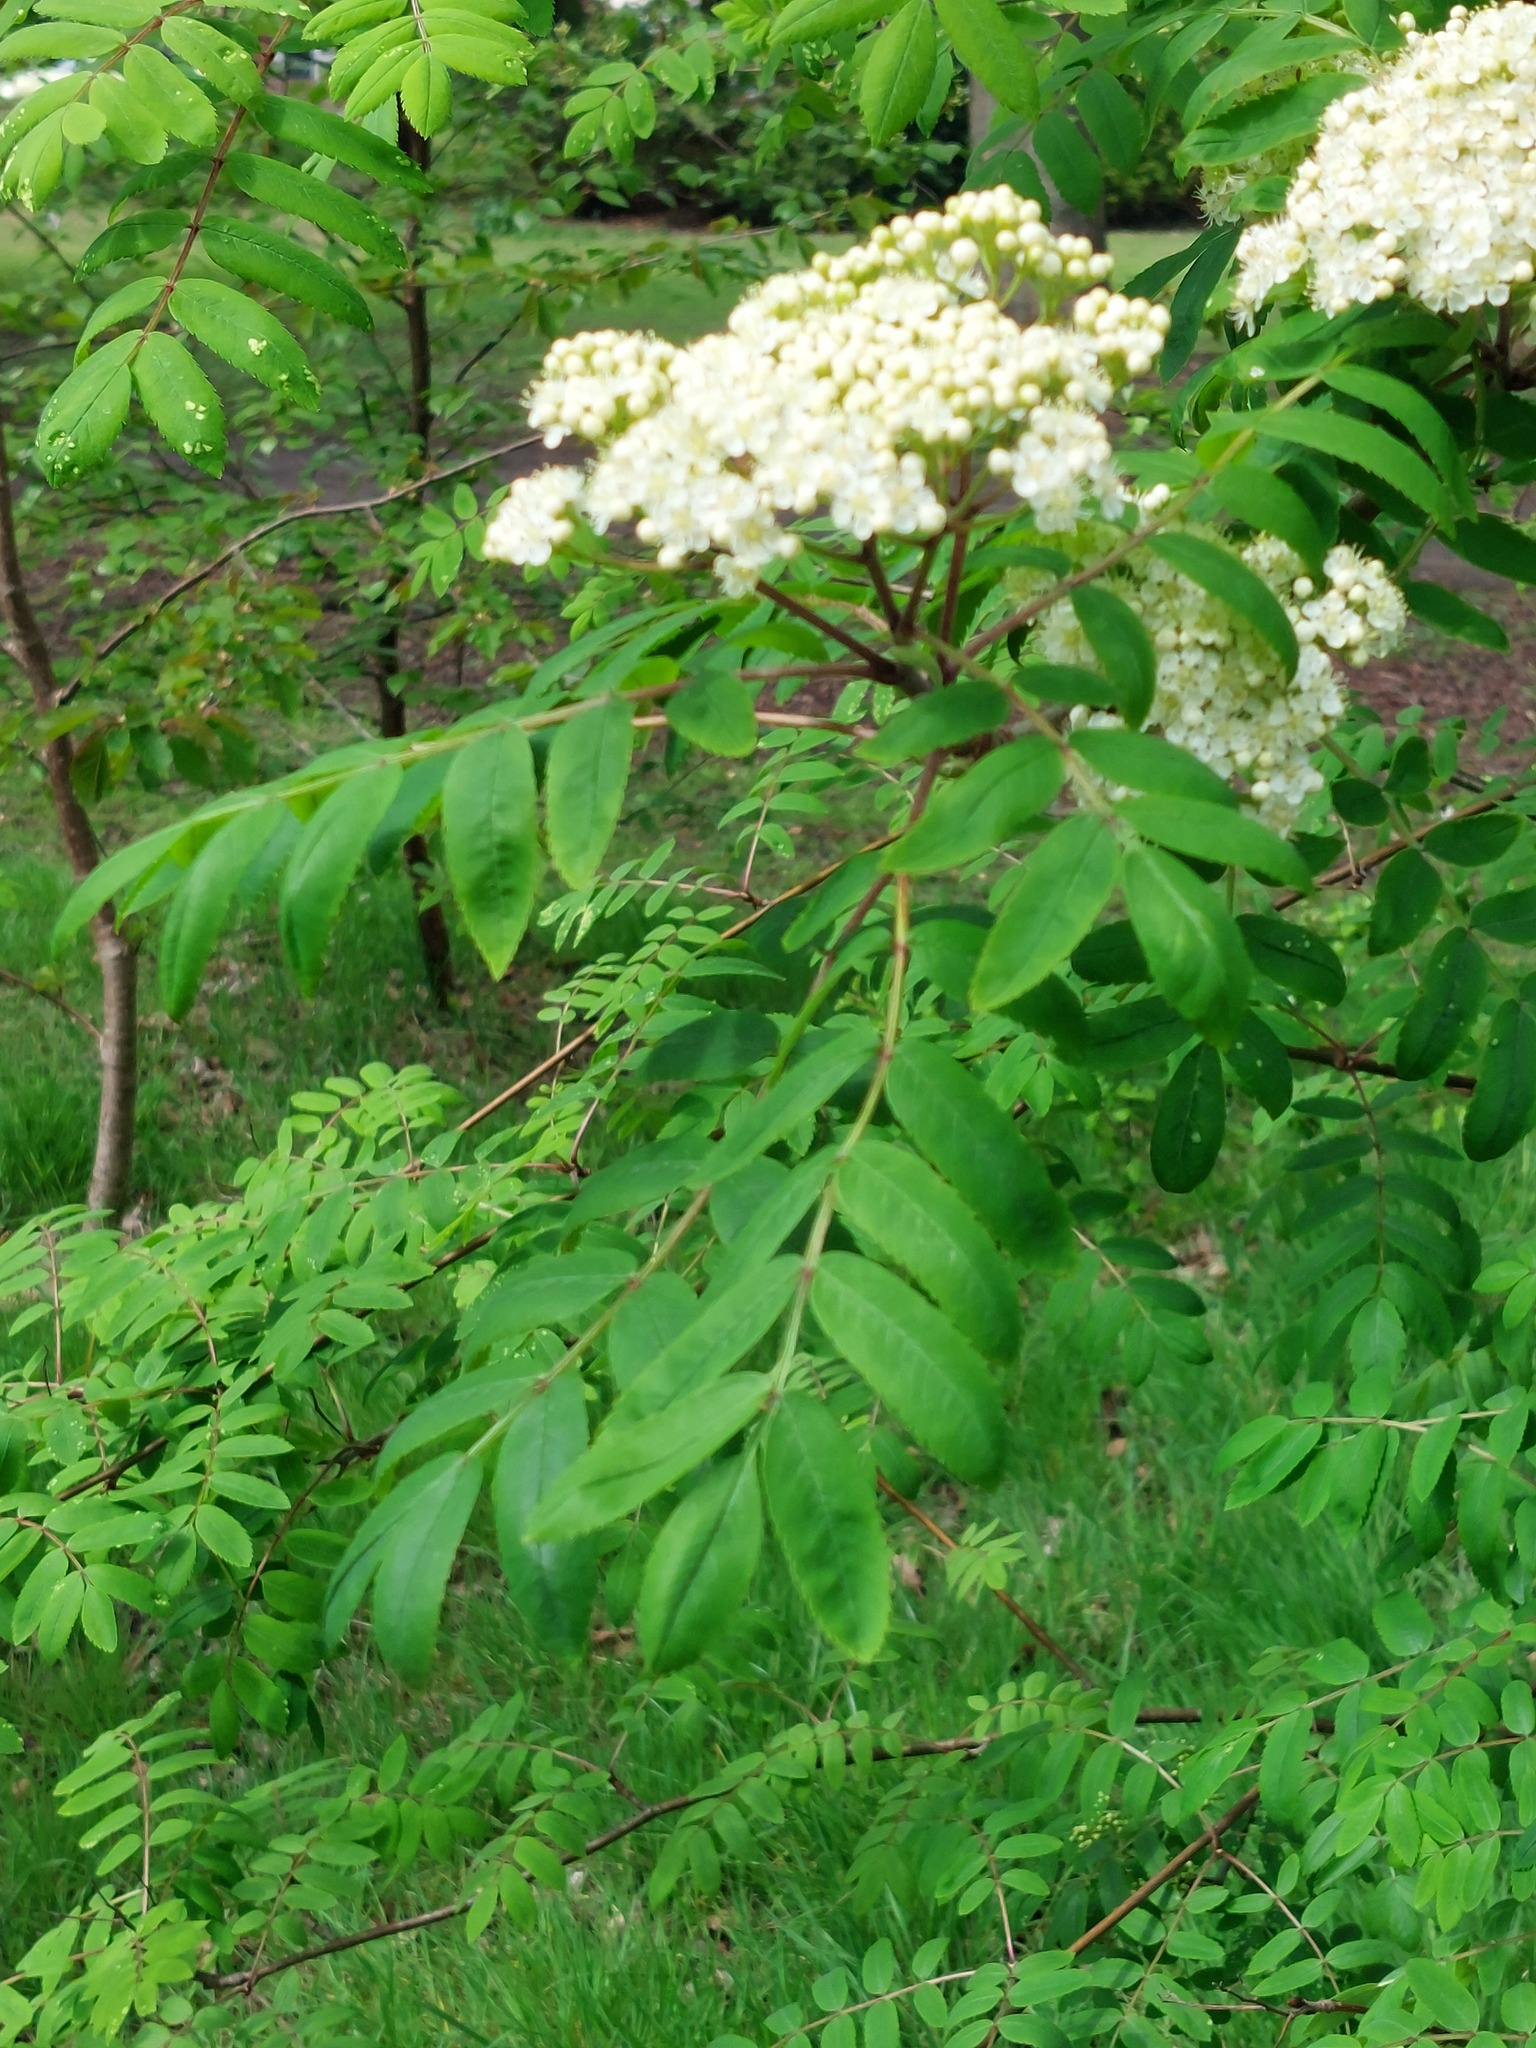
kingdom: Plantae
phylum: Tracheophyta
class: Magnoliopsida
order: Rosales
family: Rosaceae
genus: Sorbus
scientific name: Sorbus aucuparia
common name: Rowan
